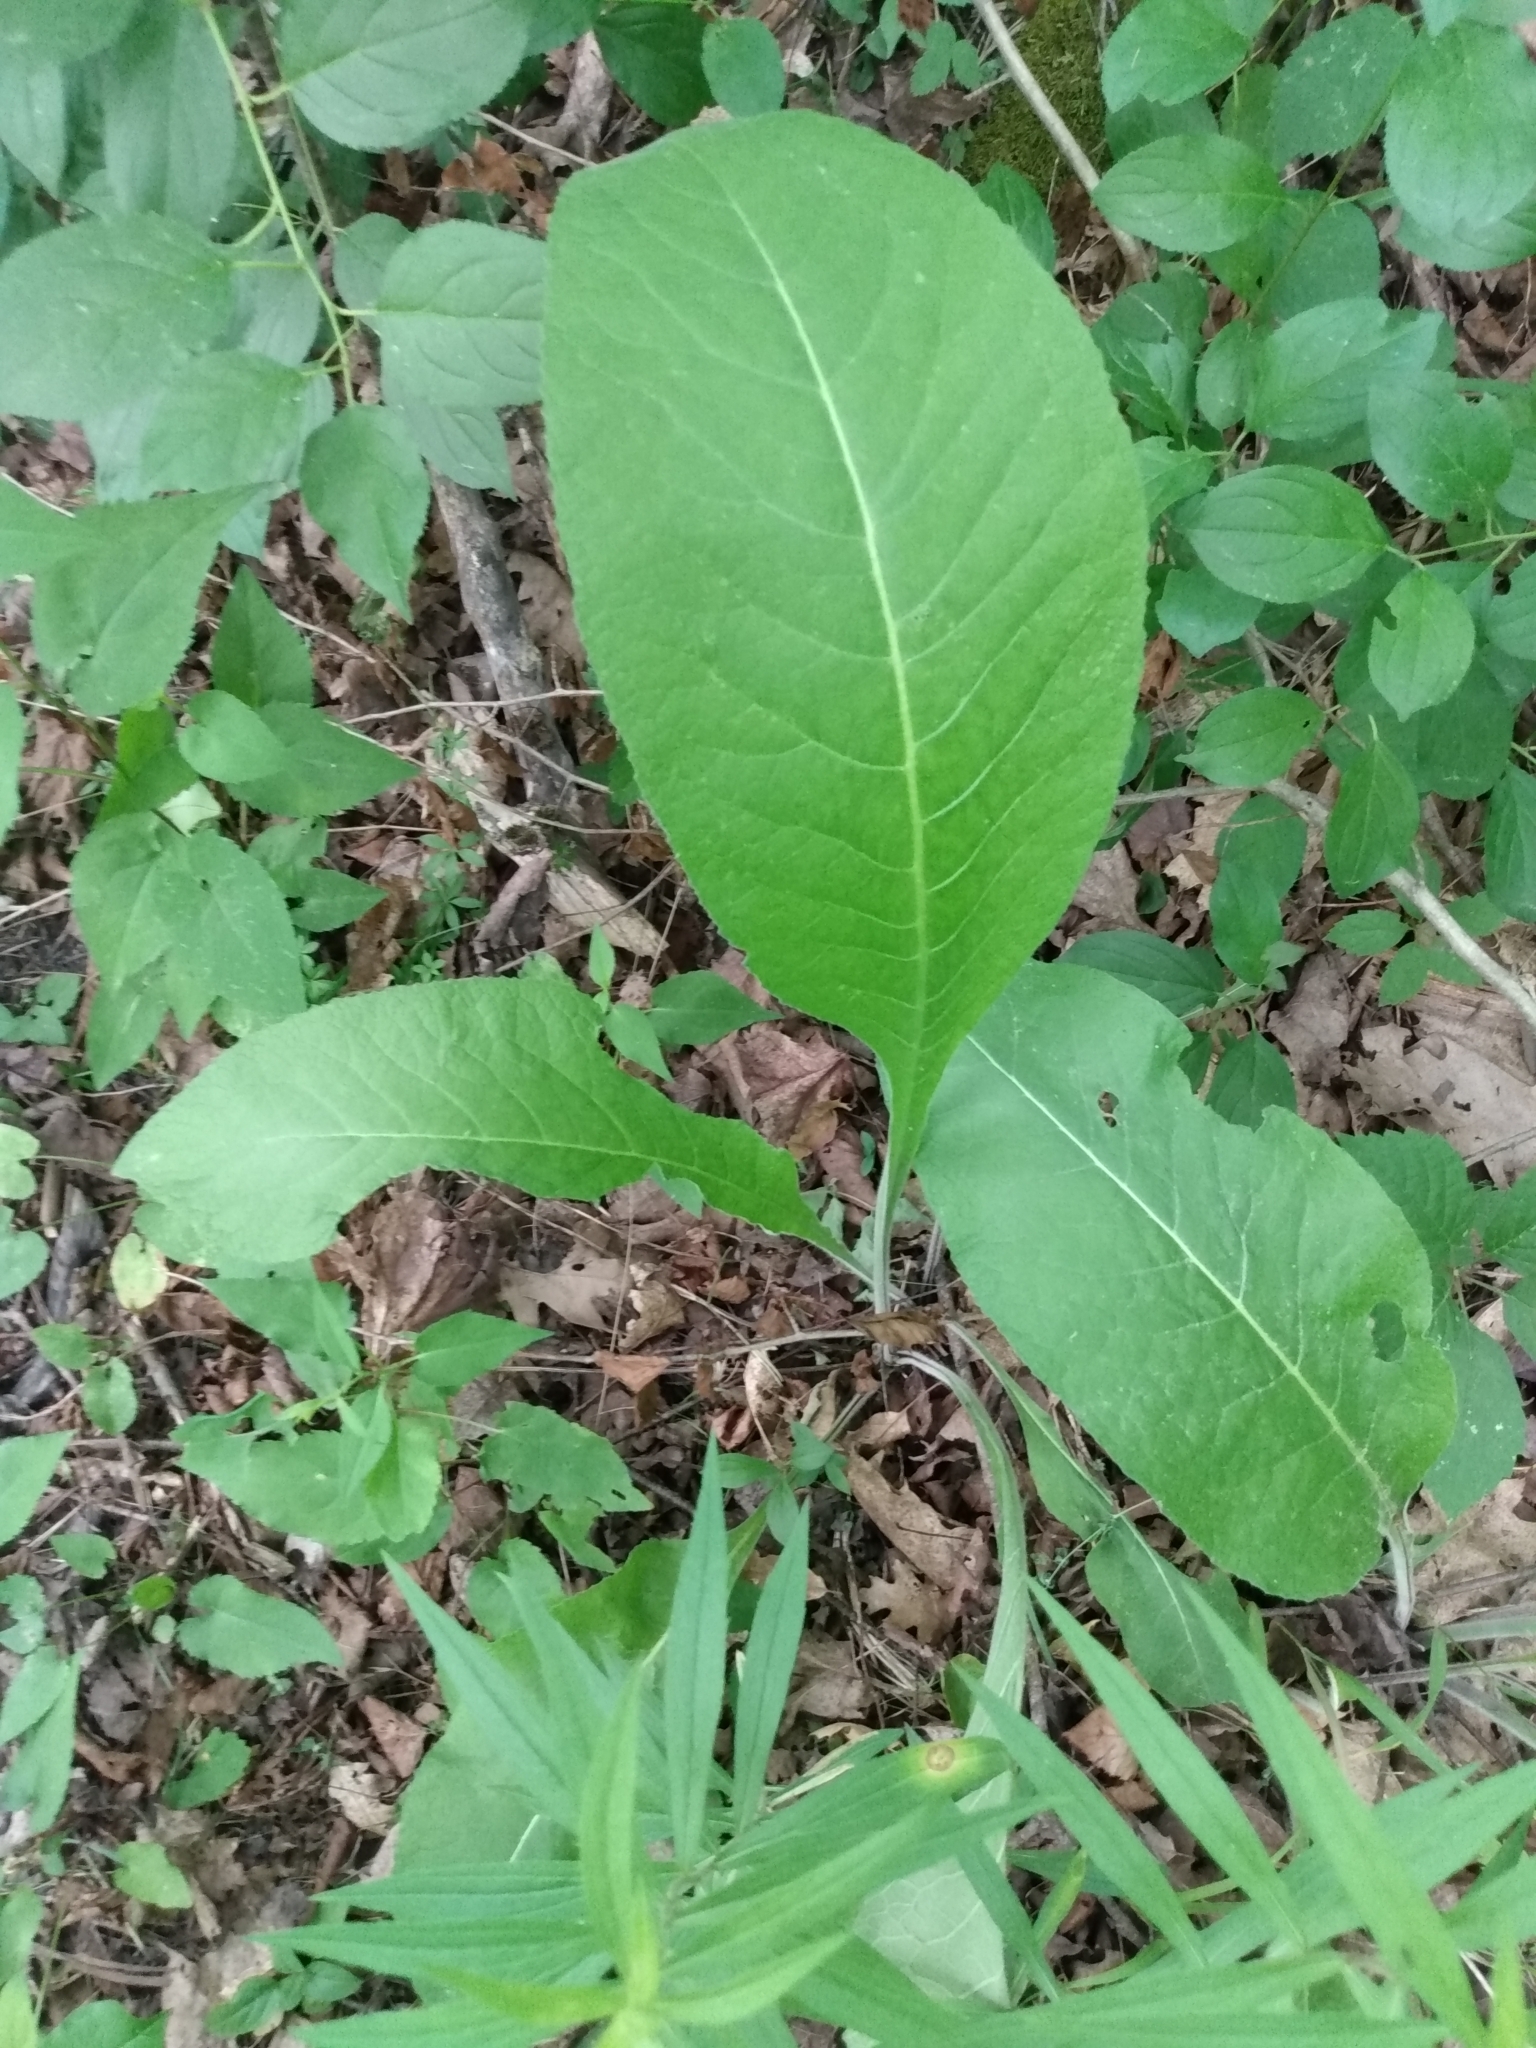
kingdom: Plantae
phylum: Tracheophyta
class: Magnoliopsida
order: Asterales
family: Asteraceae
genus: Inula
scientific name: Inula helenium
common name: Elecampane
